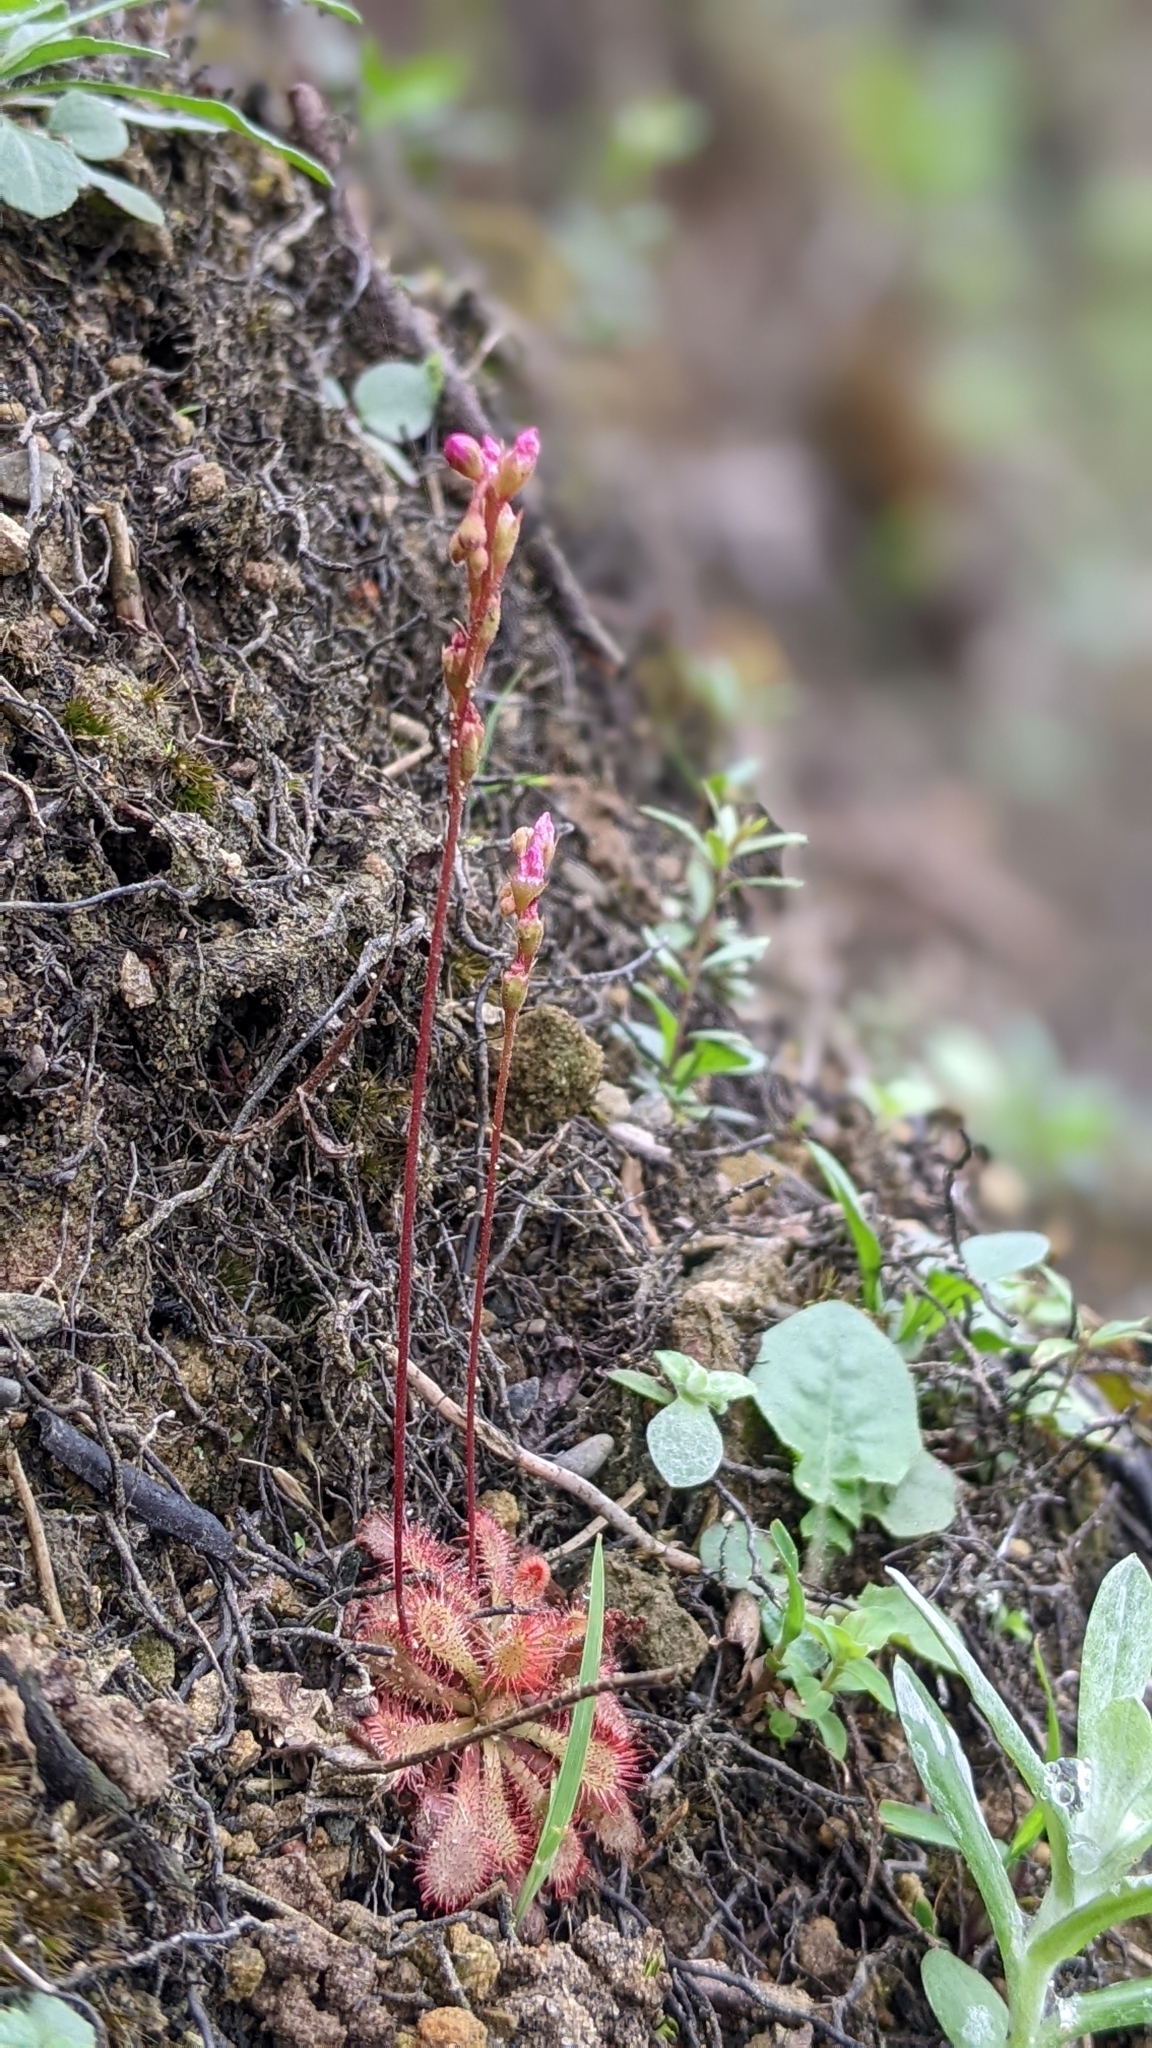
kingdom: Plantae
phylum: Tracheophyta
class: Magnoliopsida
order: Caryophyllales
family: Droseraceae
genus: Drosera
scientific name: Drosera spatulata
